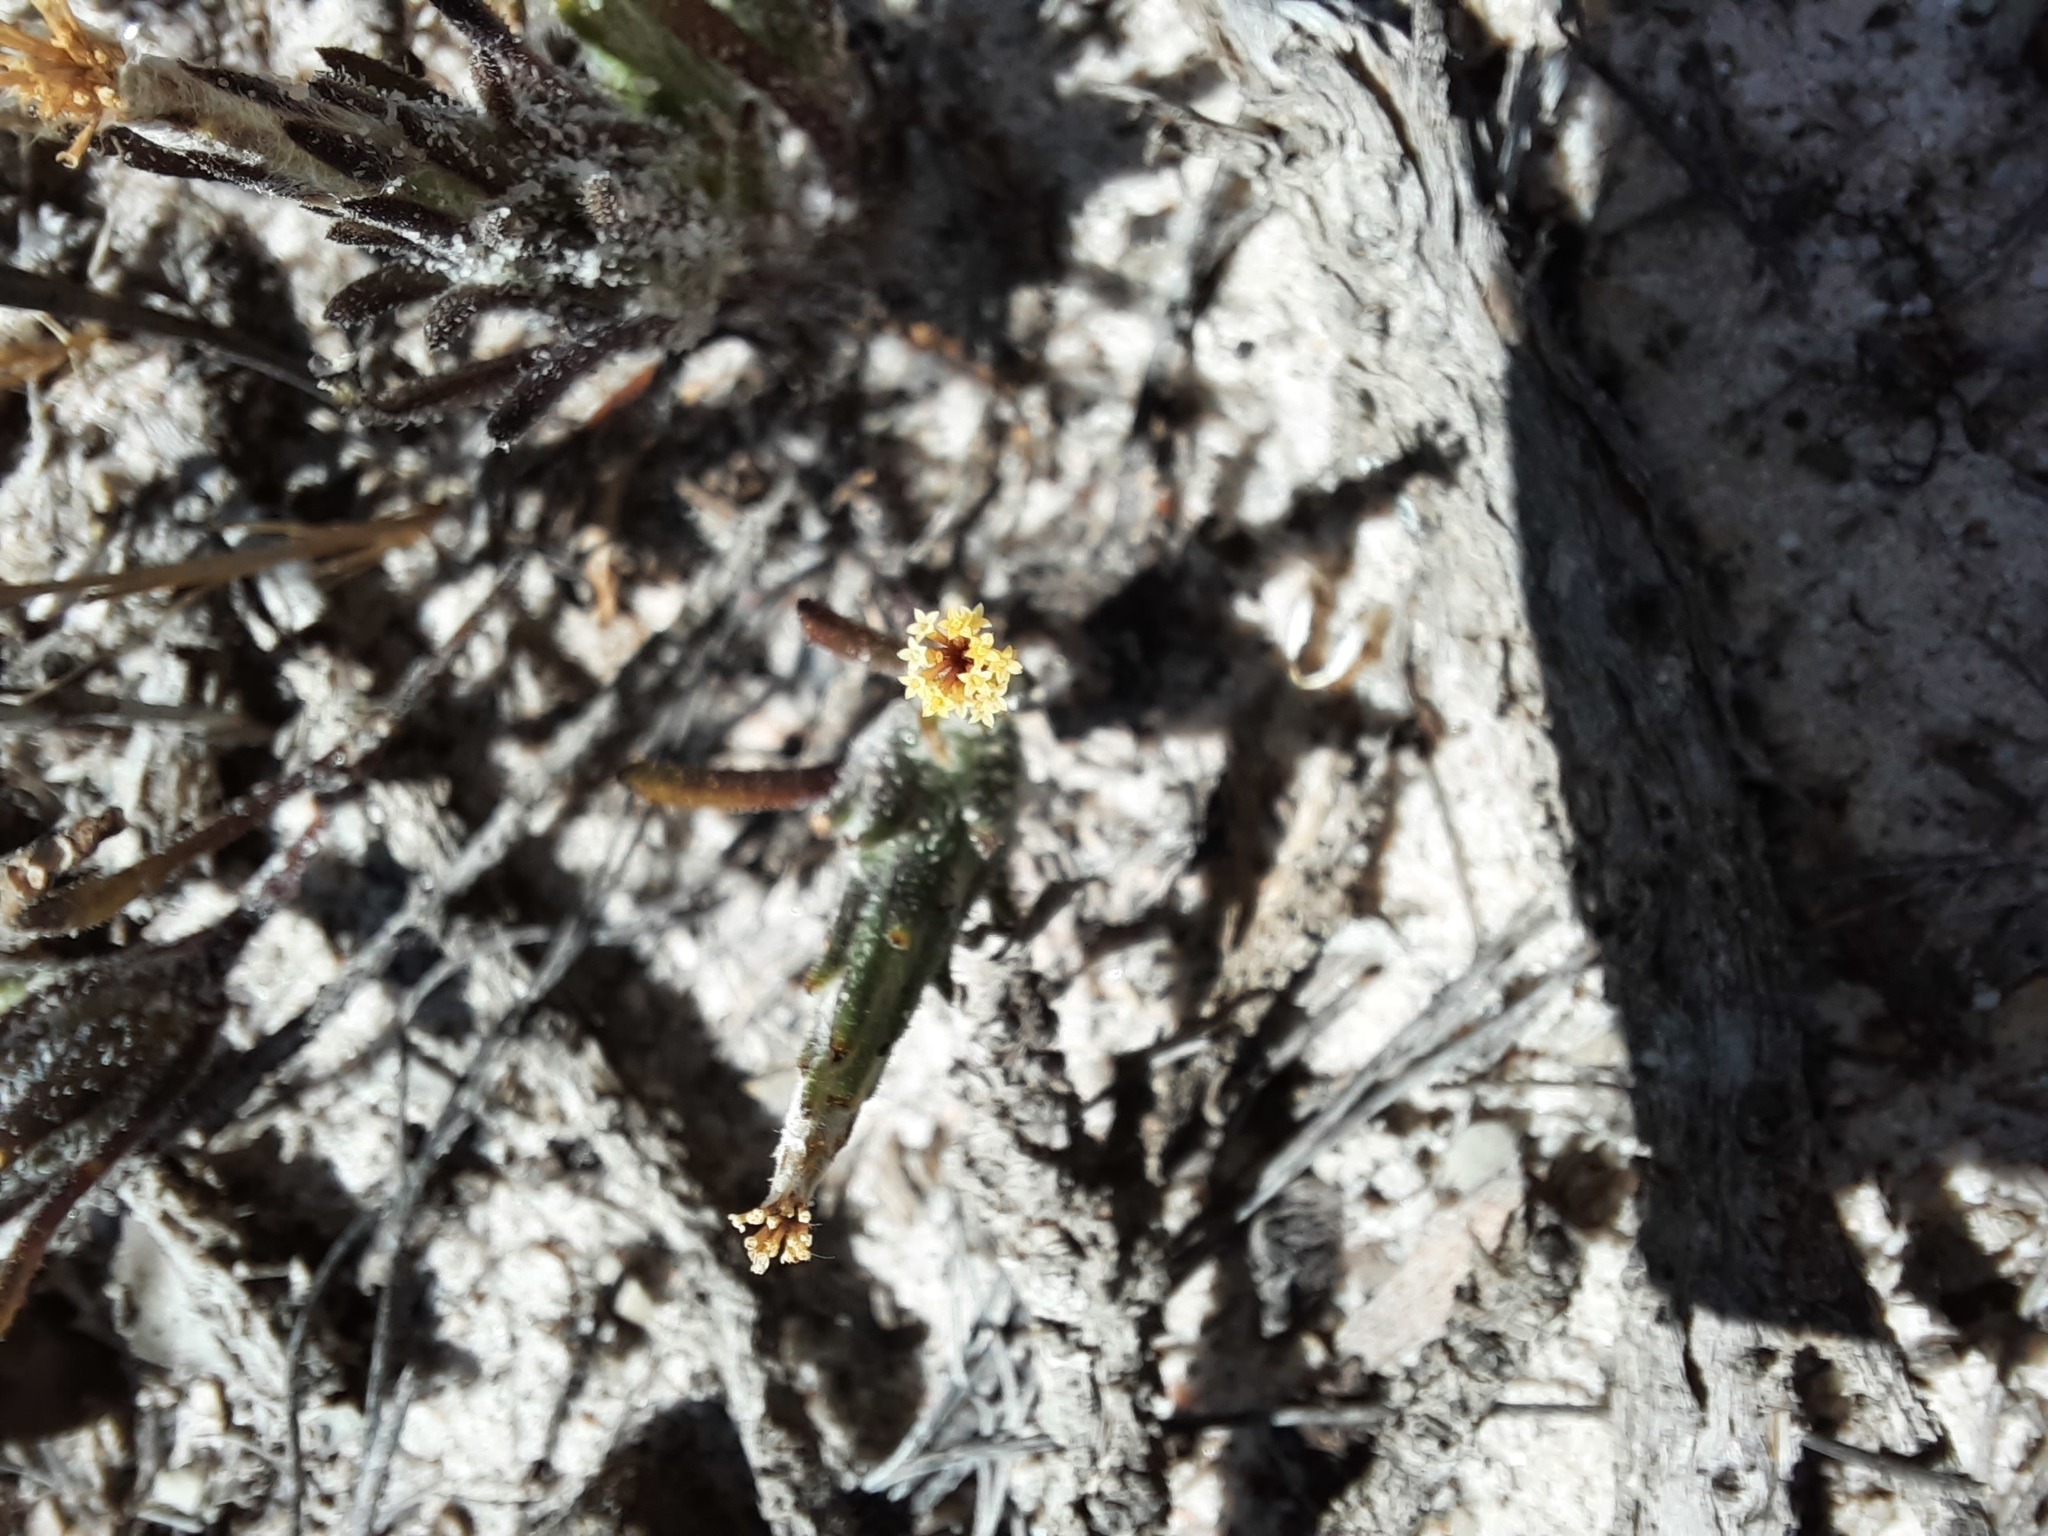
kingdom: Plantae
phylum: Tracheophyta
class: Magnoliopsida
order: Asterales
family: Asteraceae
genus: Podotheca
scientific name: Podotheca angustifolia
